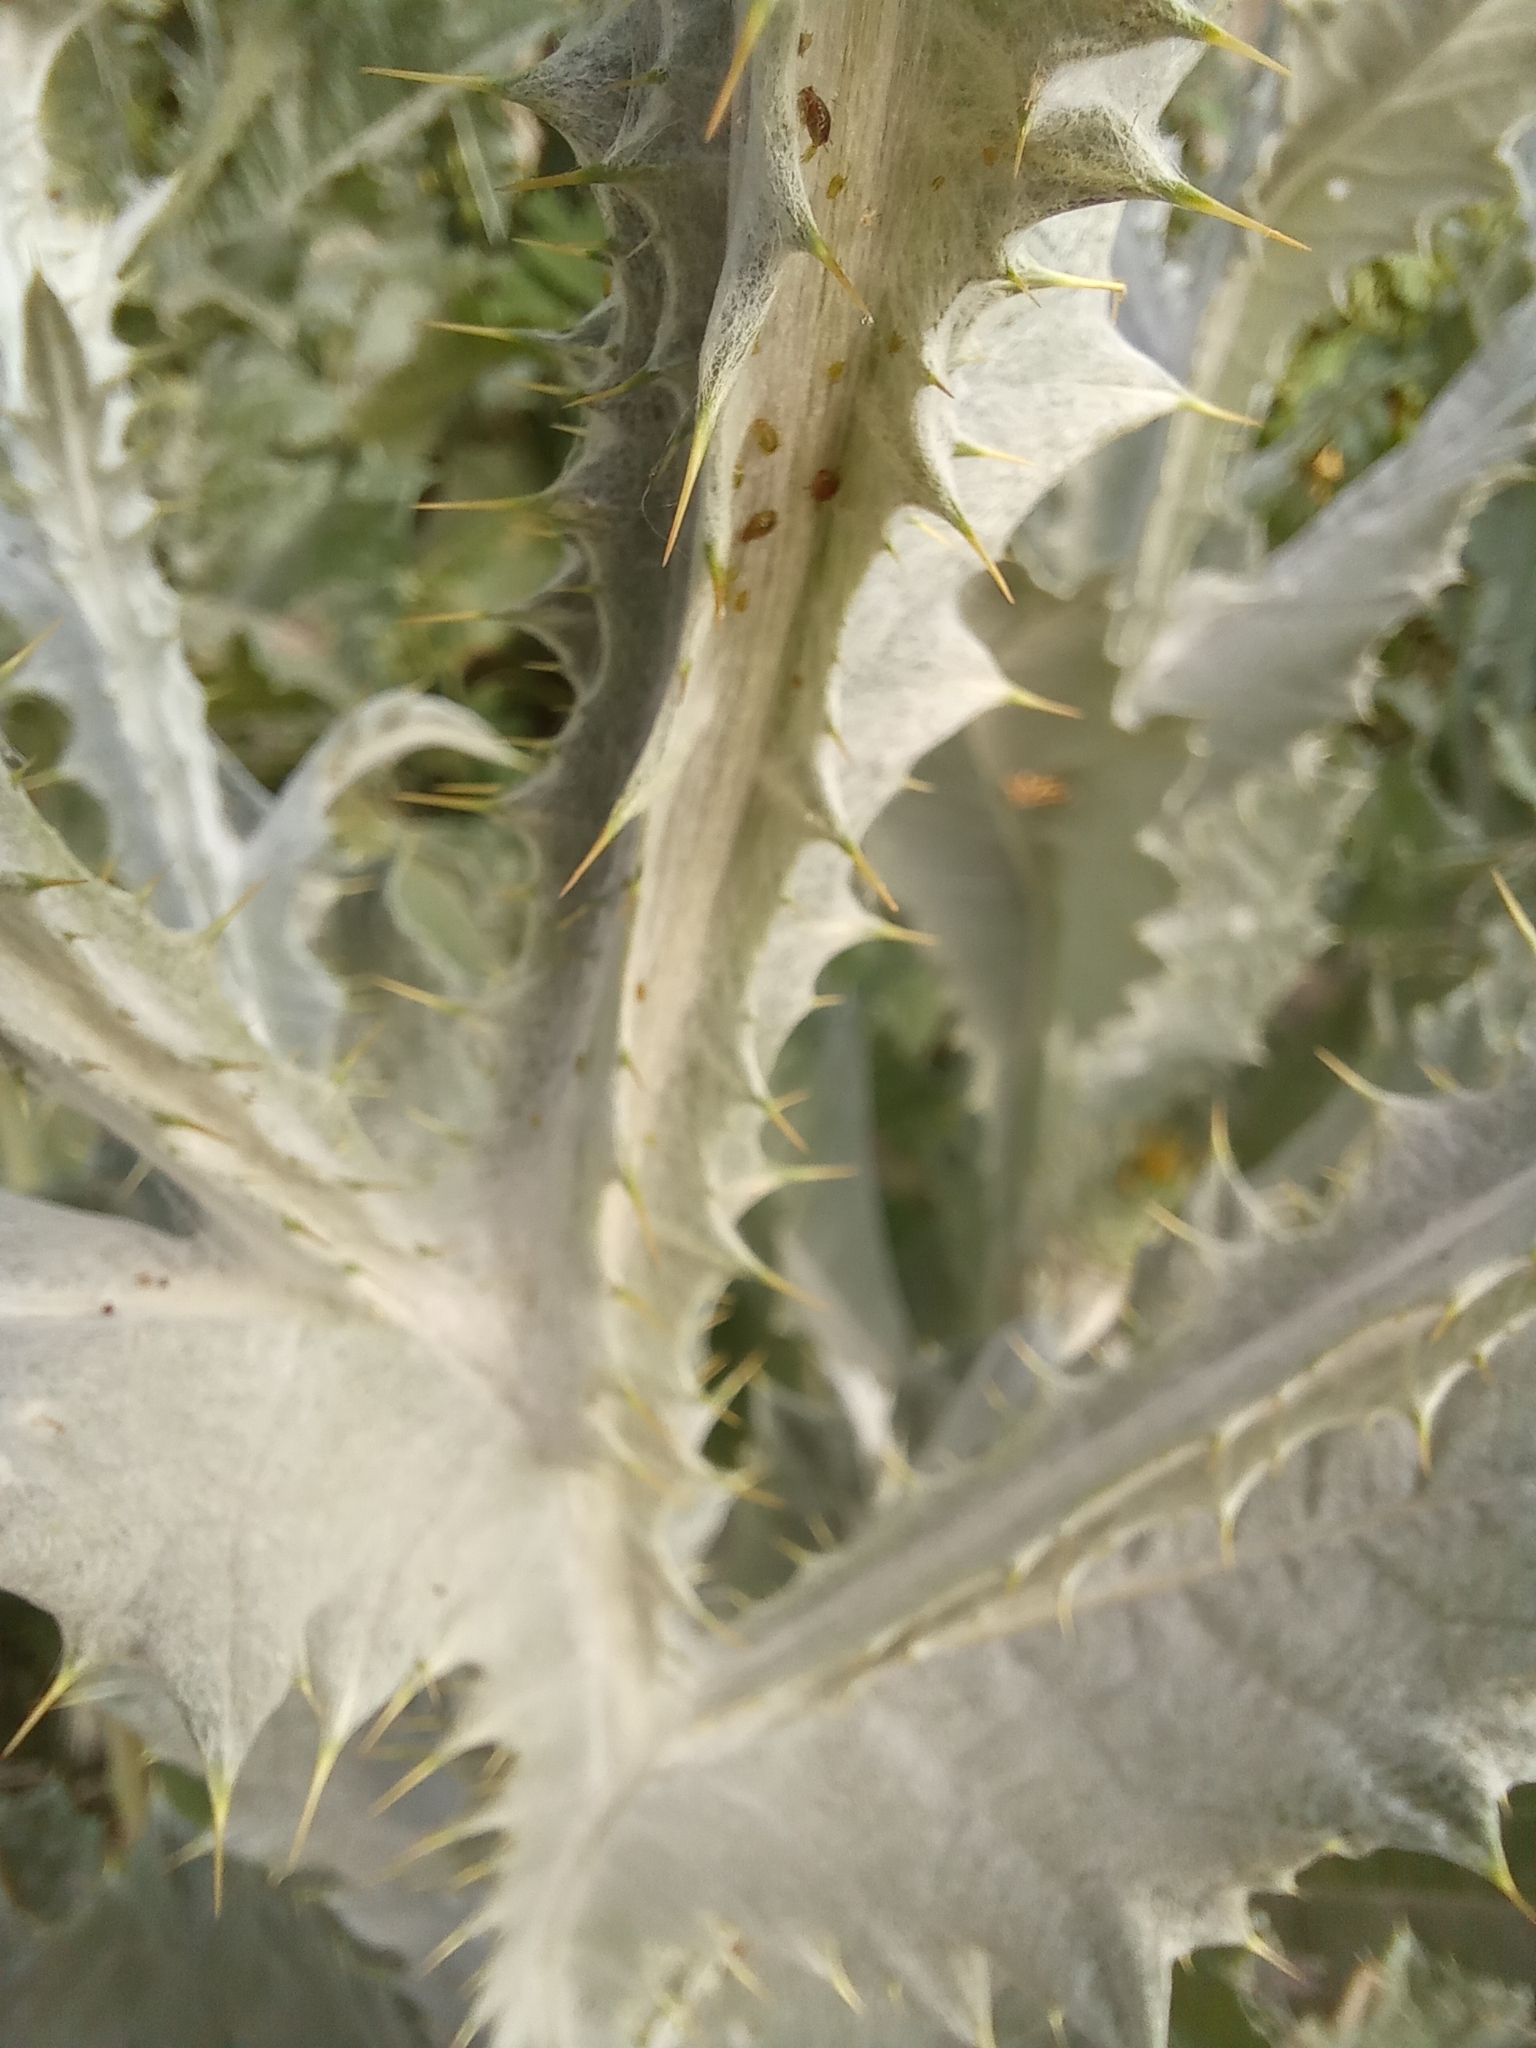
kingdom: Plantae
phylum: Tracheophyta
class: Magnoliopsida
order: Asterales
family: Asteraceae
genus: Onopordum
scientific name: Onopordum acanthium
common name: Scotch thistle
